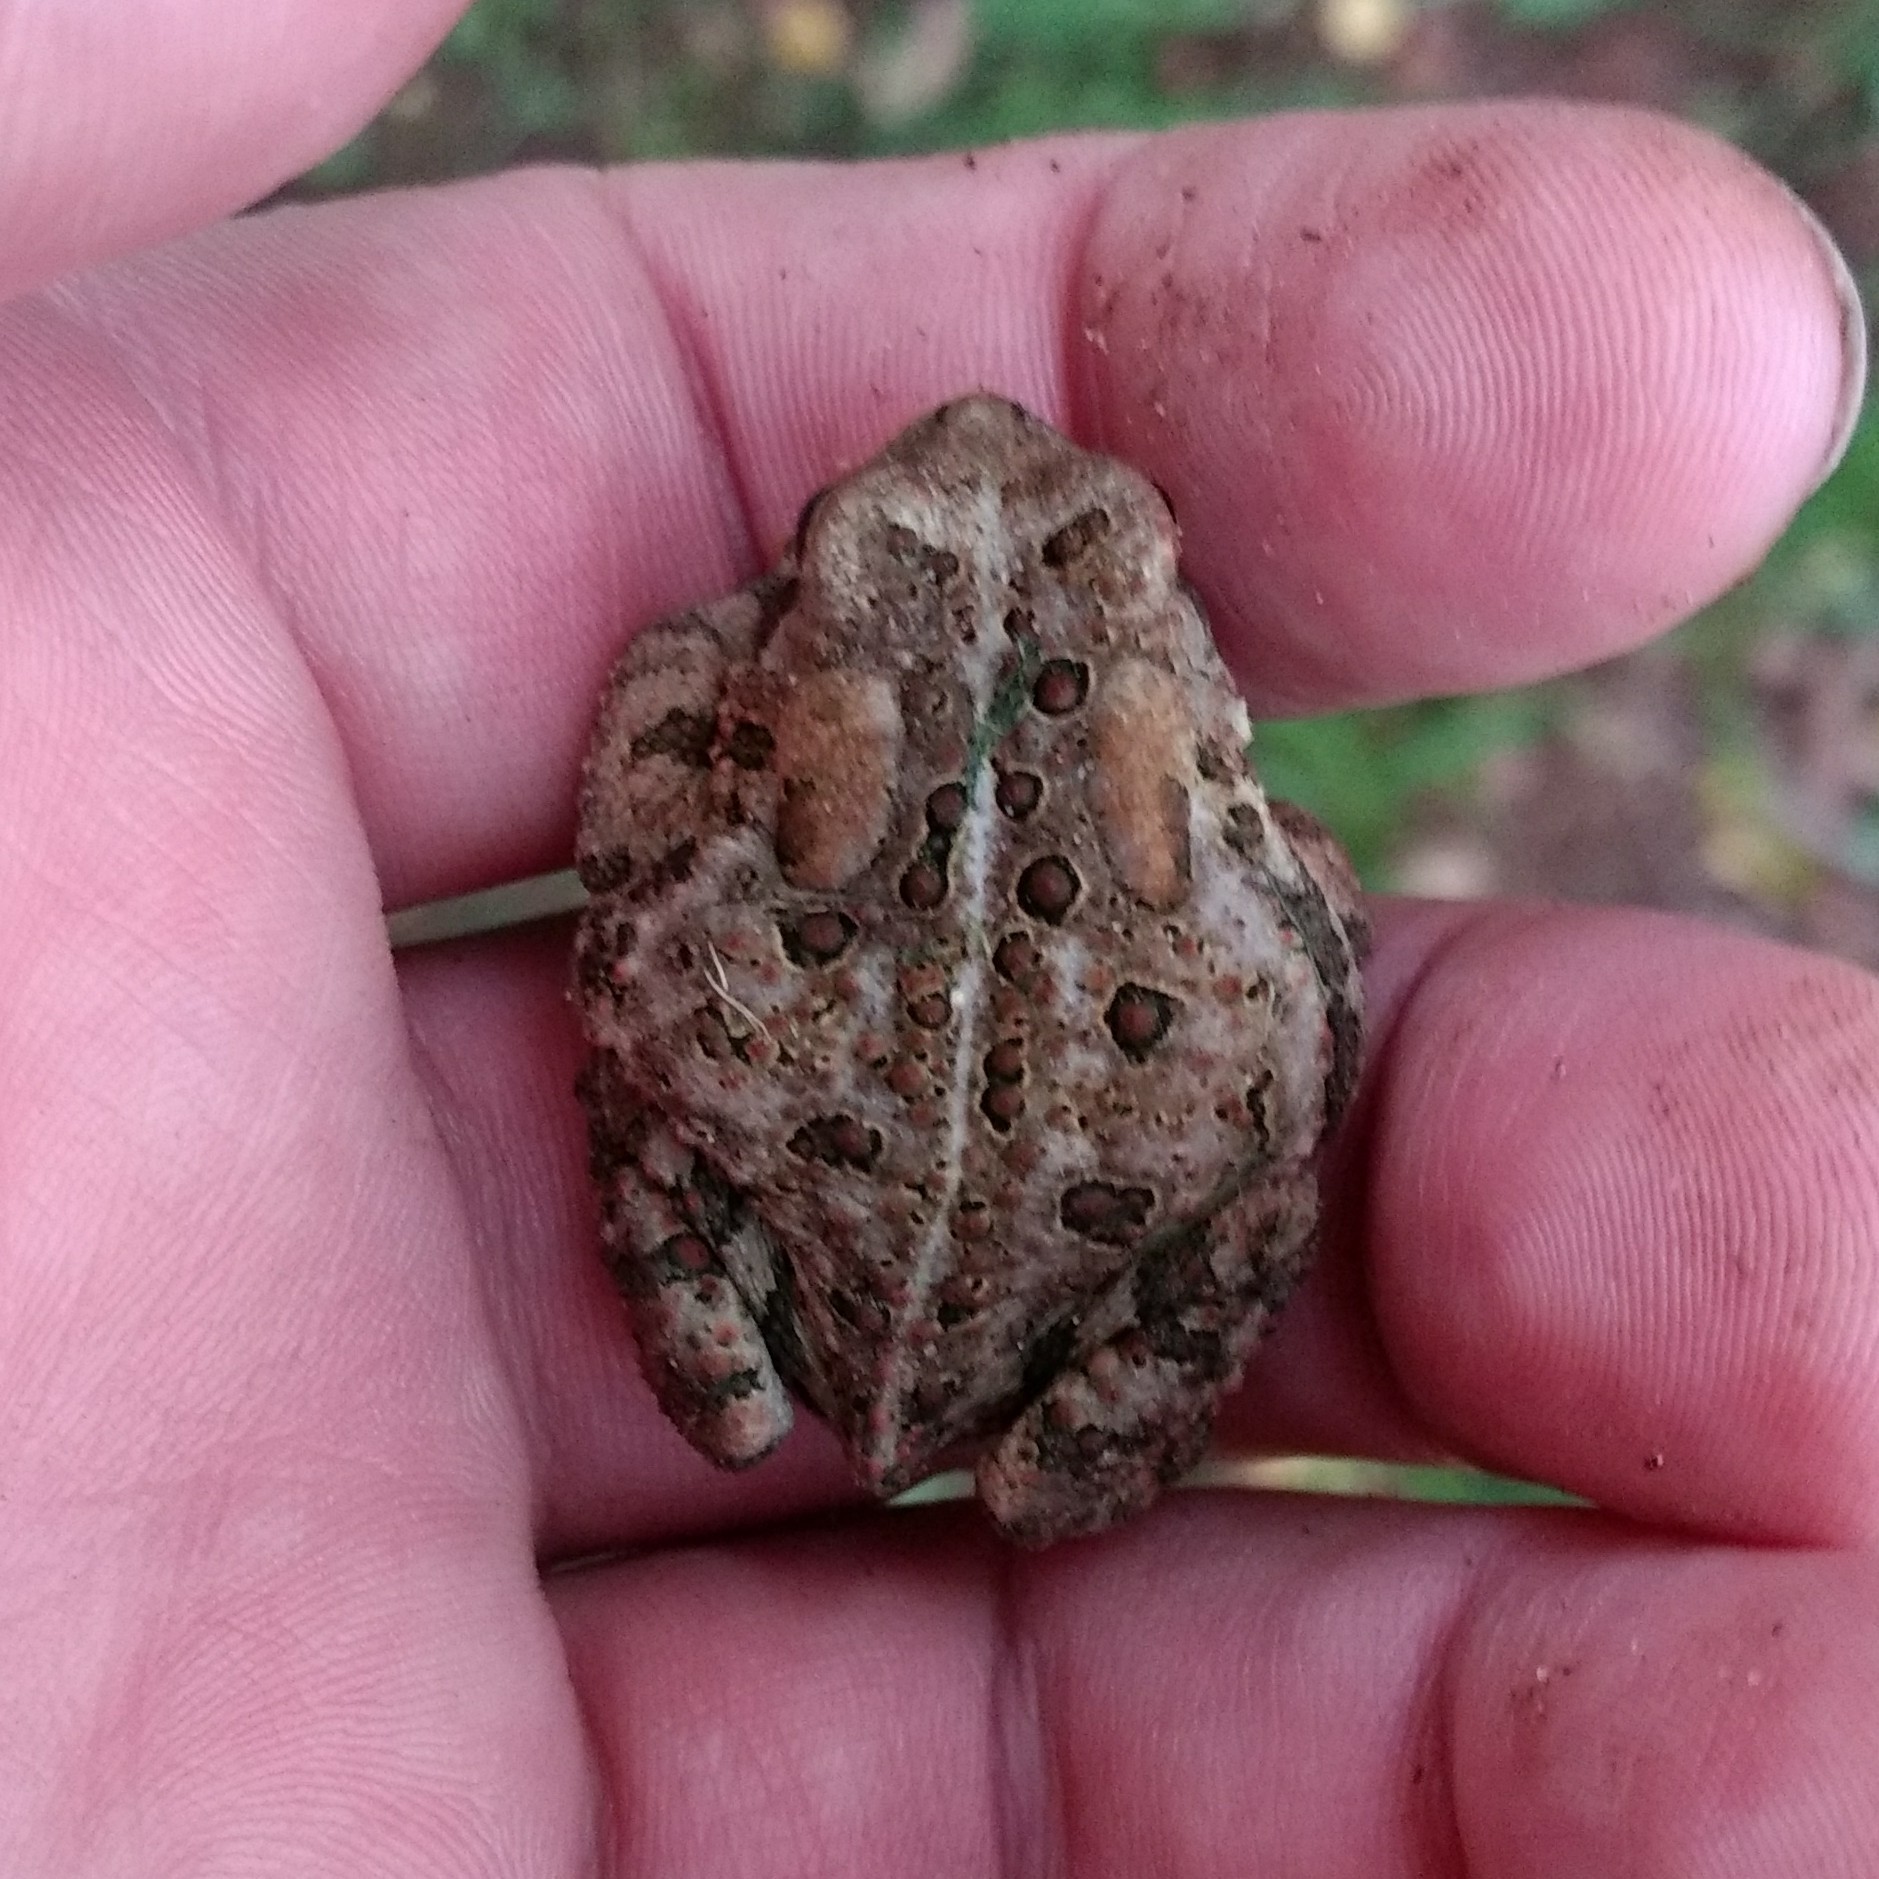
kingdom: Animalia
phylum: Chordata
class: Amphibia
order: Anura
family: Bufonidae
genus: Anaxyrus
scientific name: Anaxyrus americanus
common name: American toad
